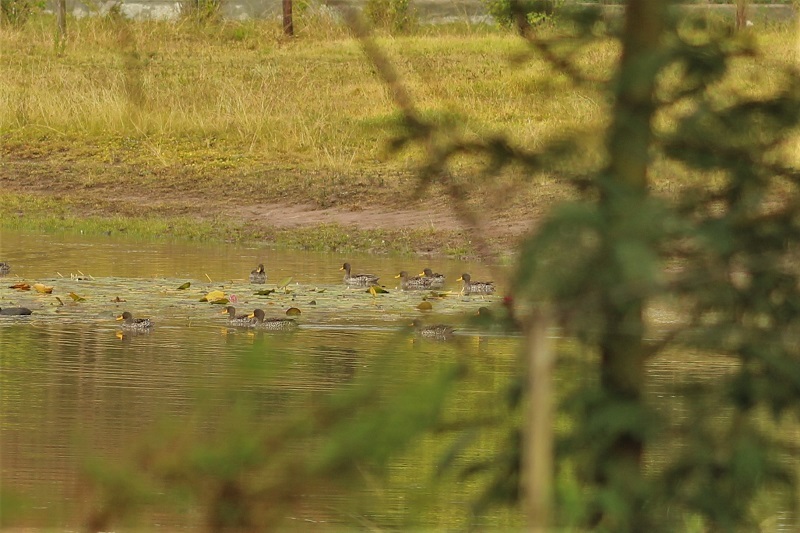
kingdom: Animalia
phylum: Chordata
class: Aves
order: Anseriformes
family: Anatidae
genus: Anas
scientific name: Anas undulata
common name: Yellow-billed duck
